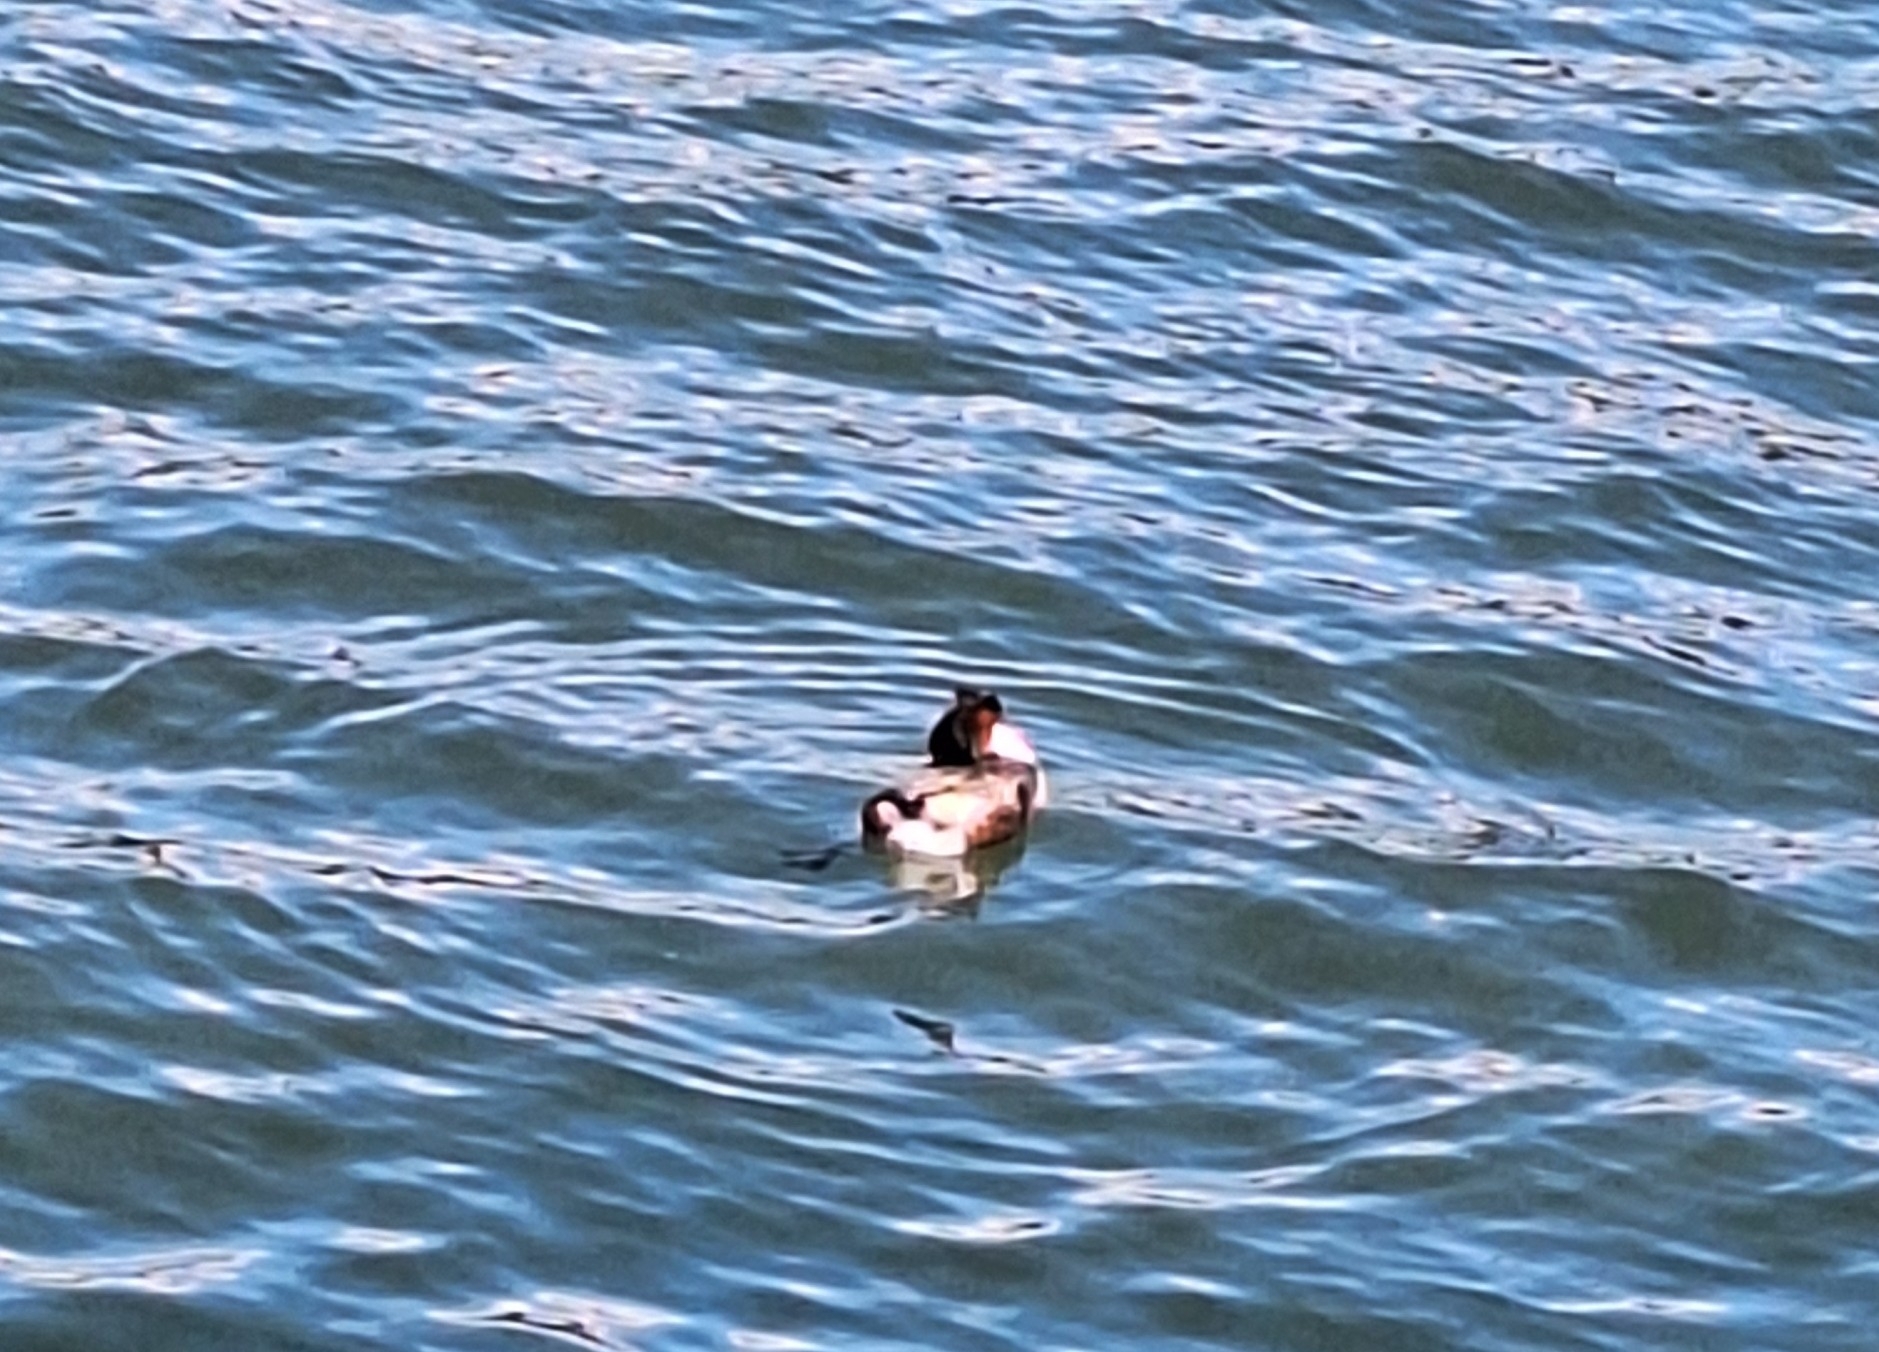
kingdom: Animalia
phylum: Chordata
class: Aves
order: Podicipediformes
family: Podicipedidae
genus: Podiceps
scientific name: Podiceps cristatus
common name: Great crested grebe
